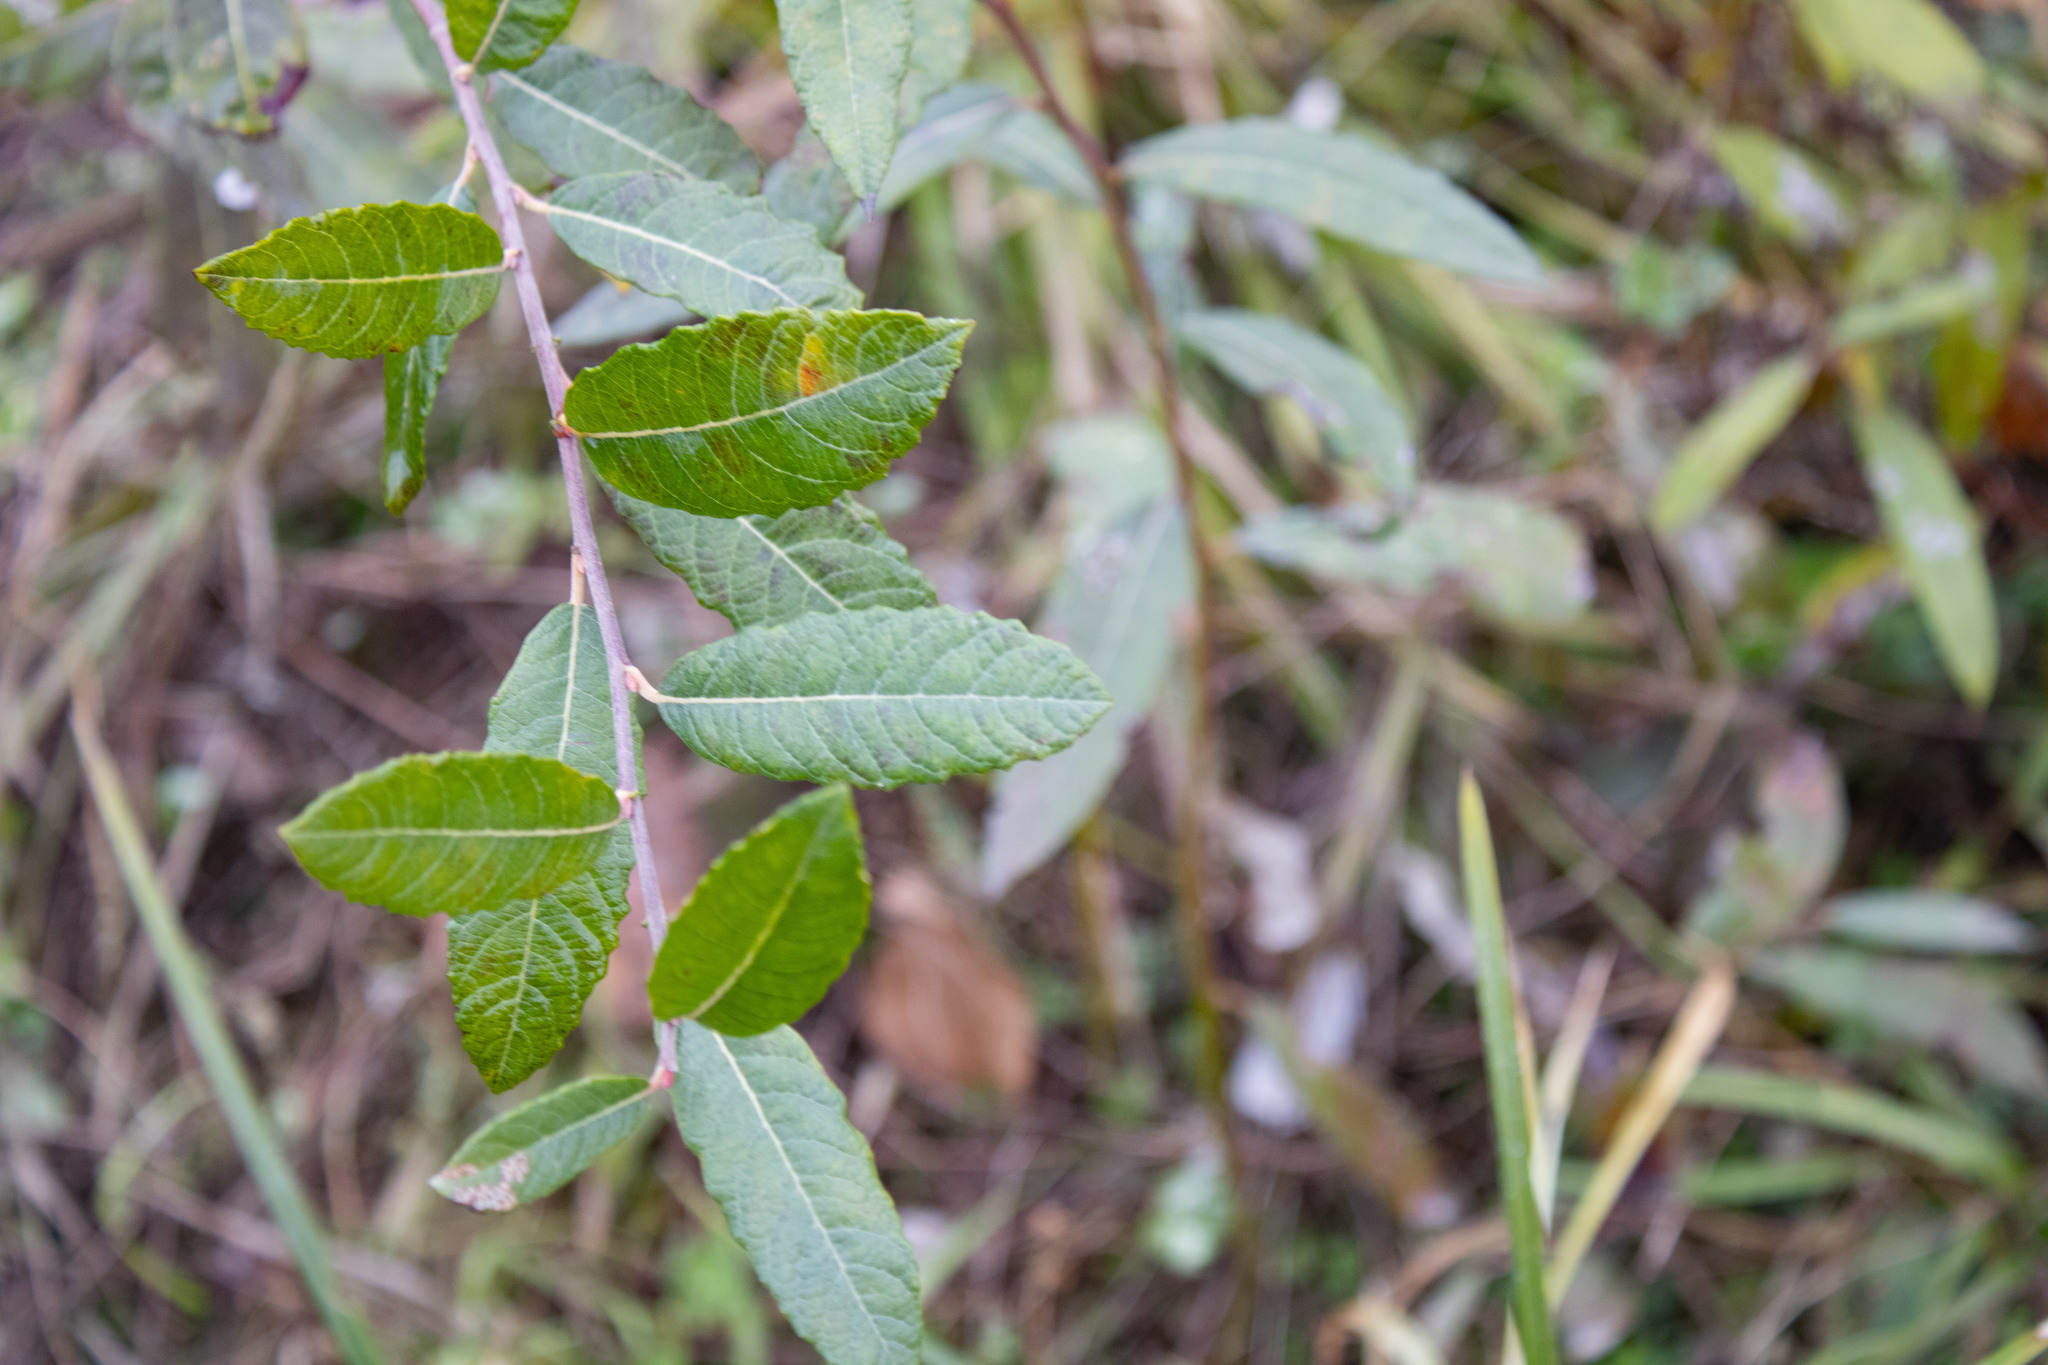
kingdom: Plantae
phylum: Tracheophyta
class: Magnoliopsida
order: Malpighiales
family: Salicaceae
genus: Salix
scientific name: Salix sitchensis
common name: Sitka willow
